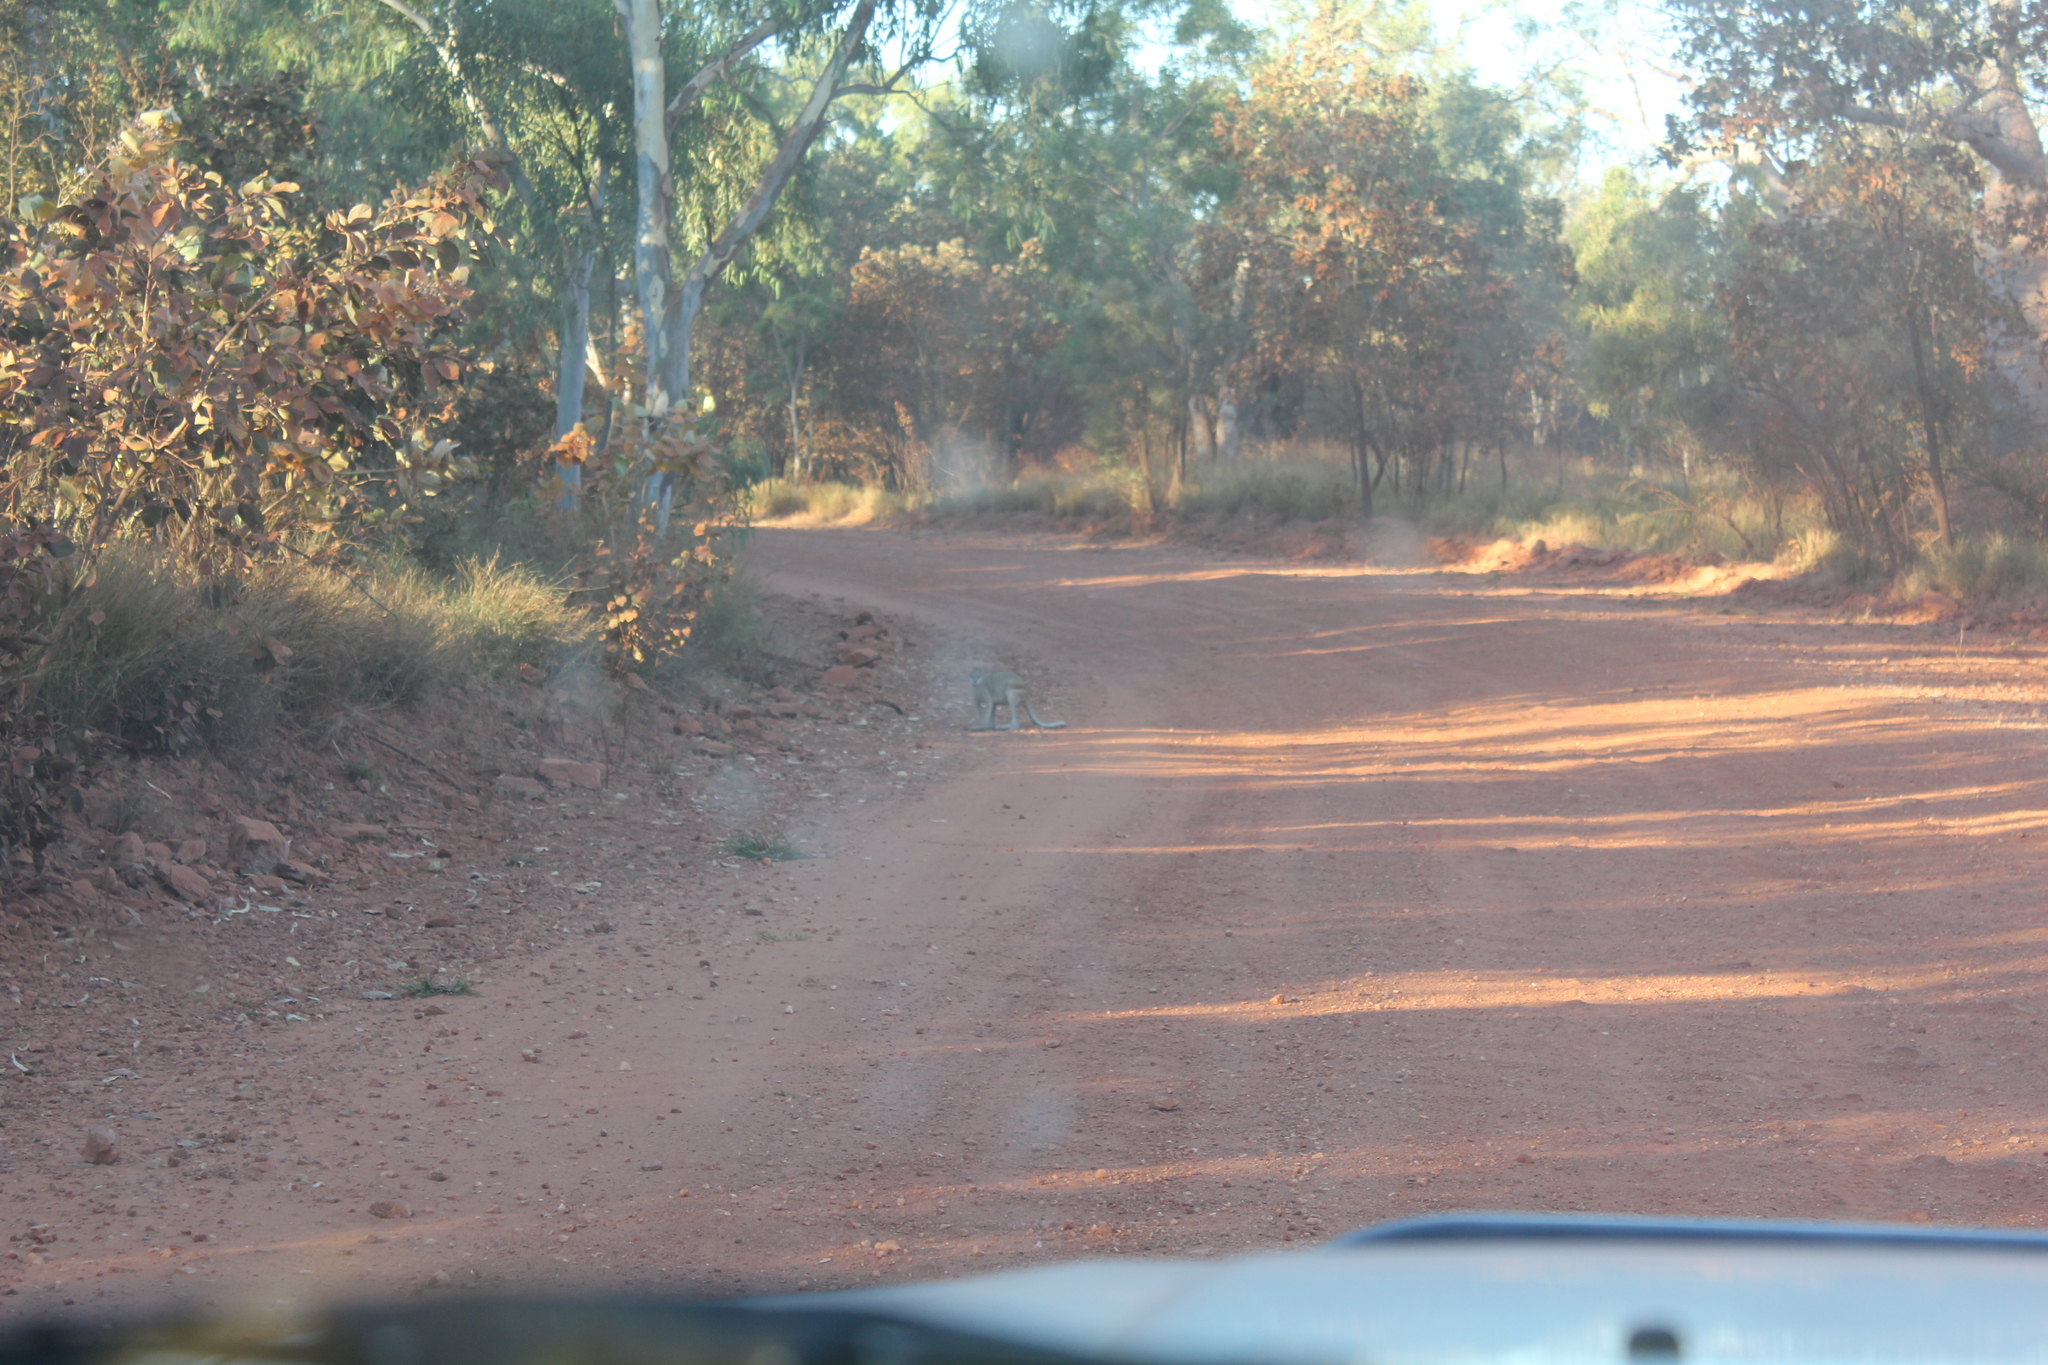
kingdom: Animalia
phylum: Chordata
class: Mammalia
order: Diprotodontia
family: Macropodidae
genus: Macropus
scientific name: Macropus agilis
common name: Agile wallaby
